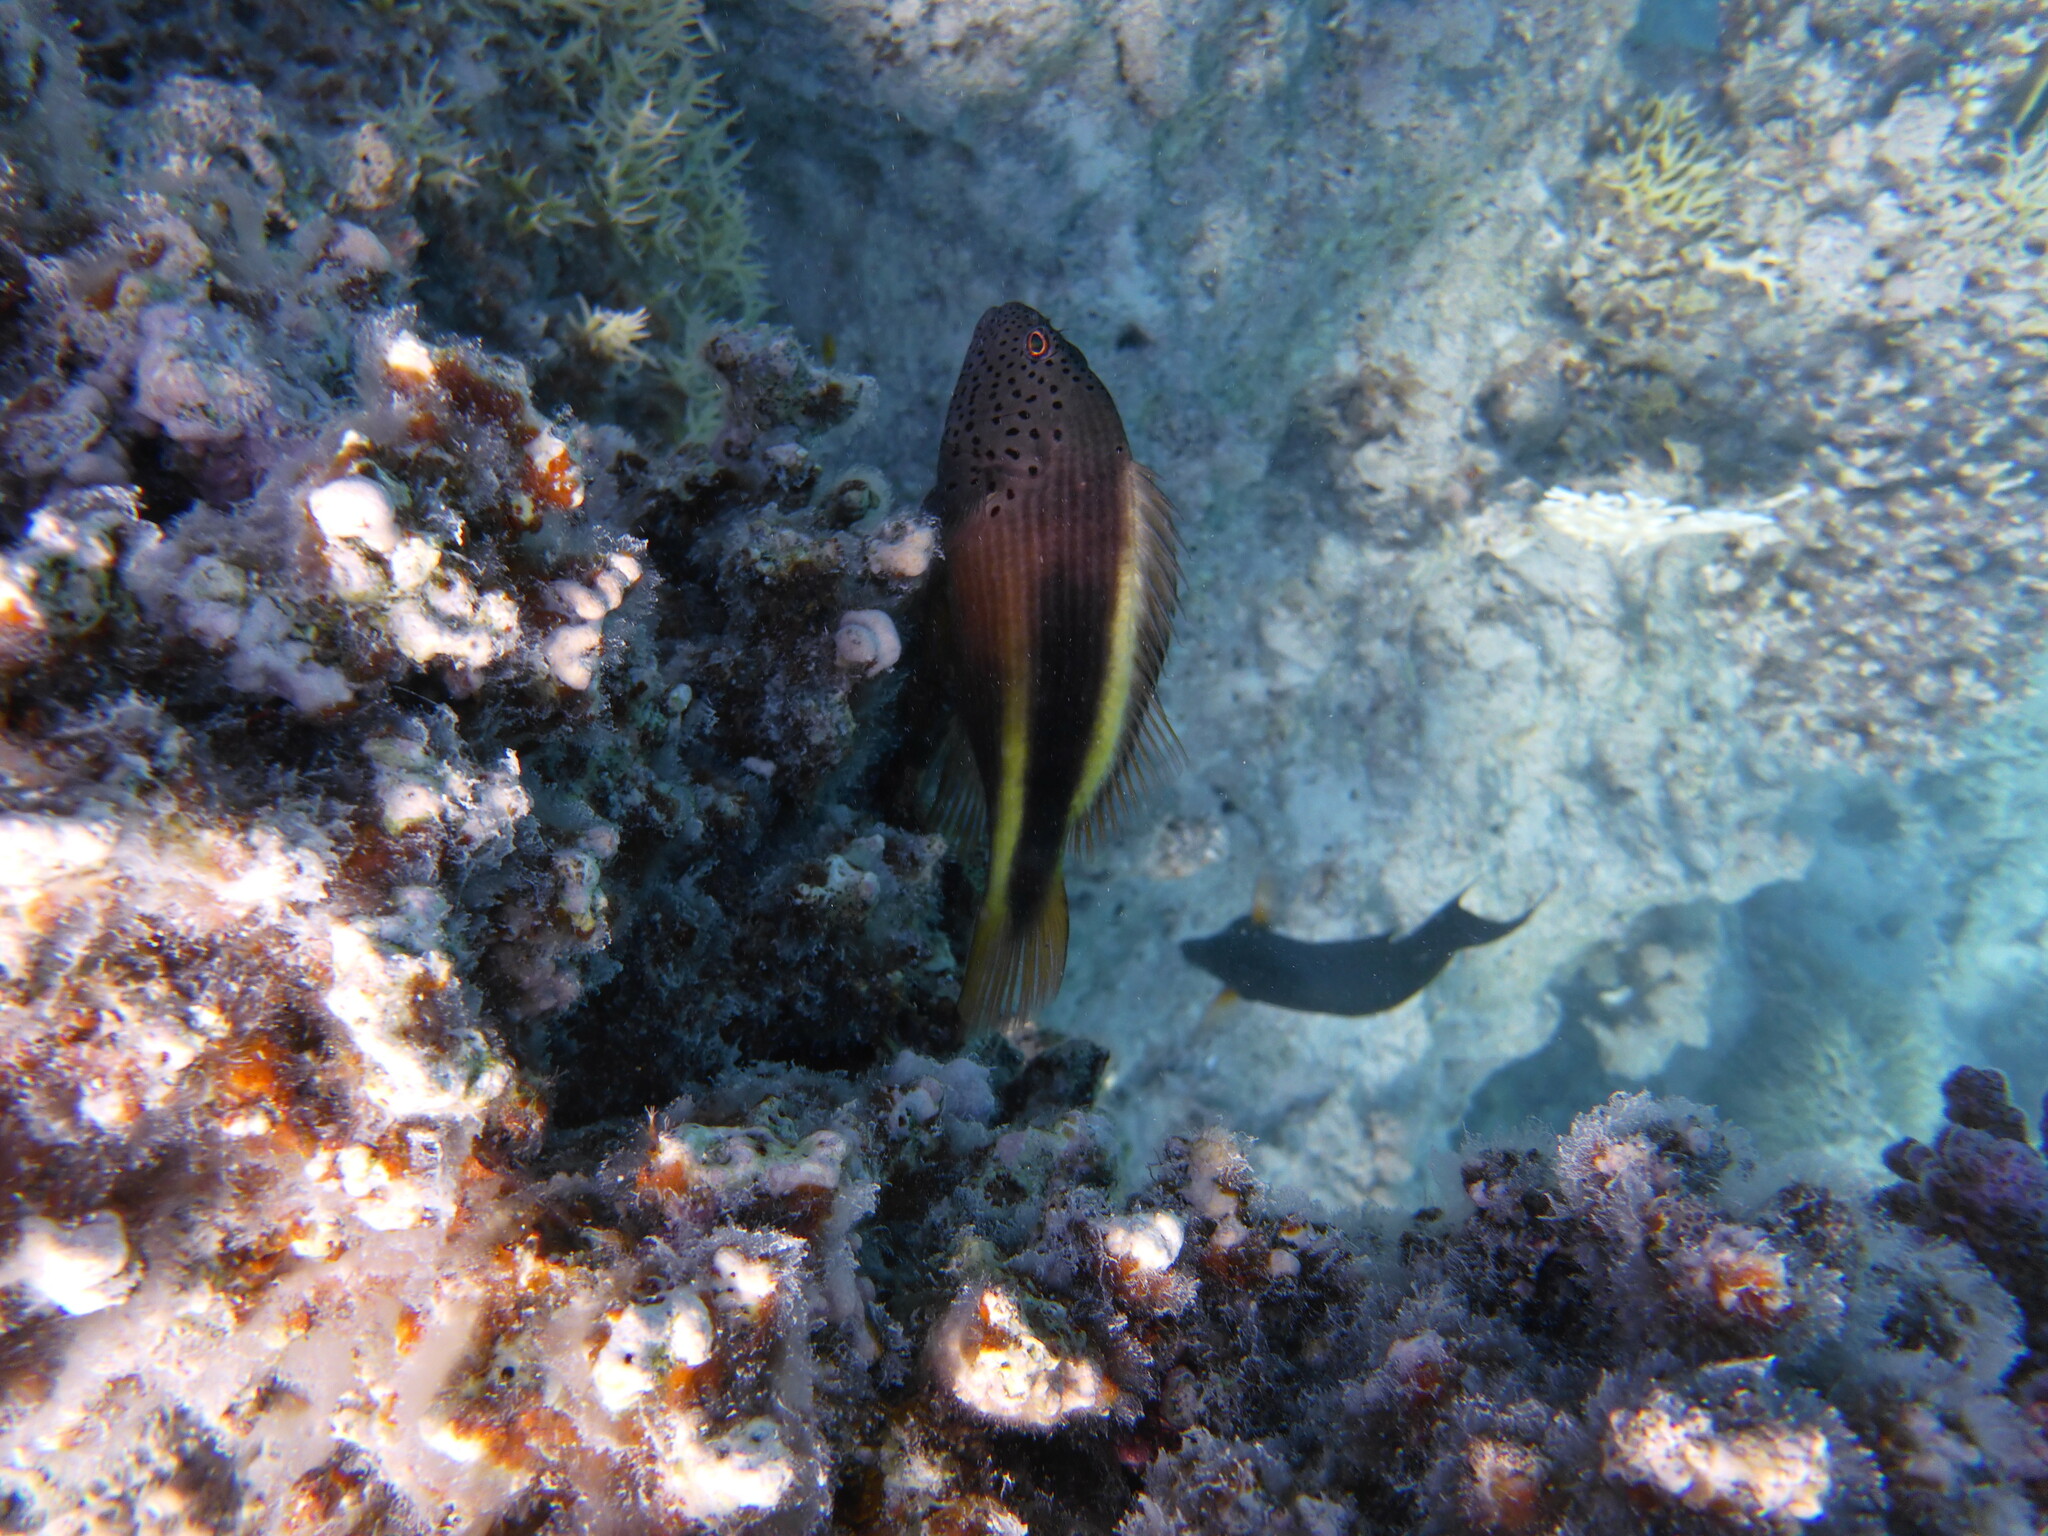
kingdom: Animalia
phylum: Chordata
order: Perciformes
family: Cirrhitidae
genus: Paracirrhites
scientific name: Paracirrhites forsteri
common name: Freckled hawkfish
